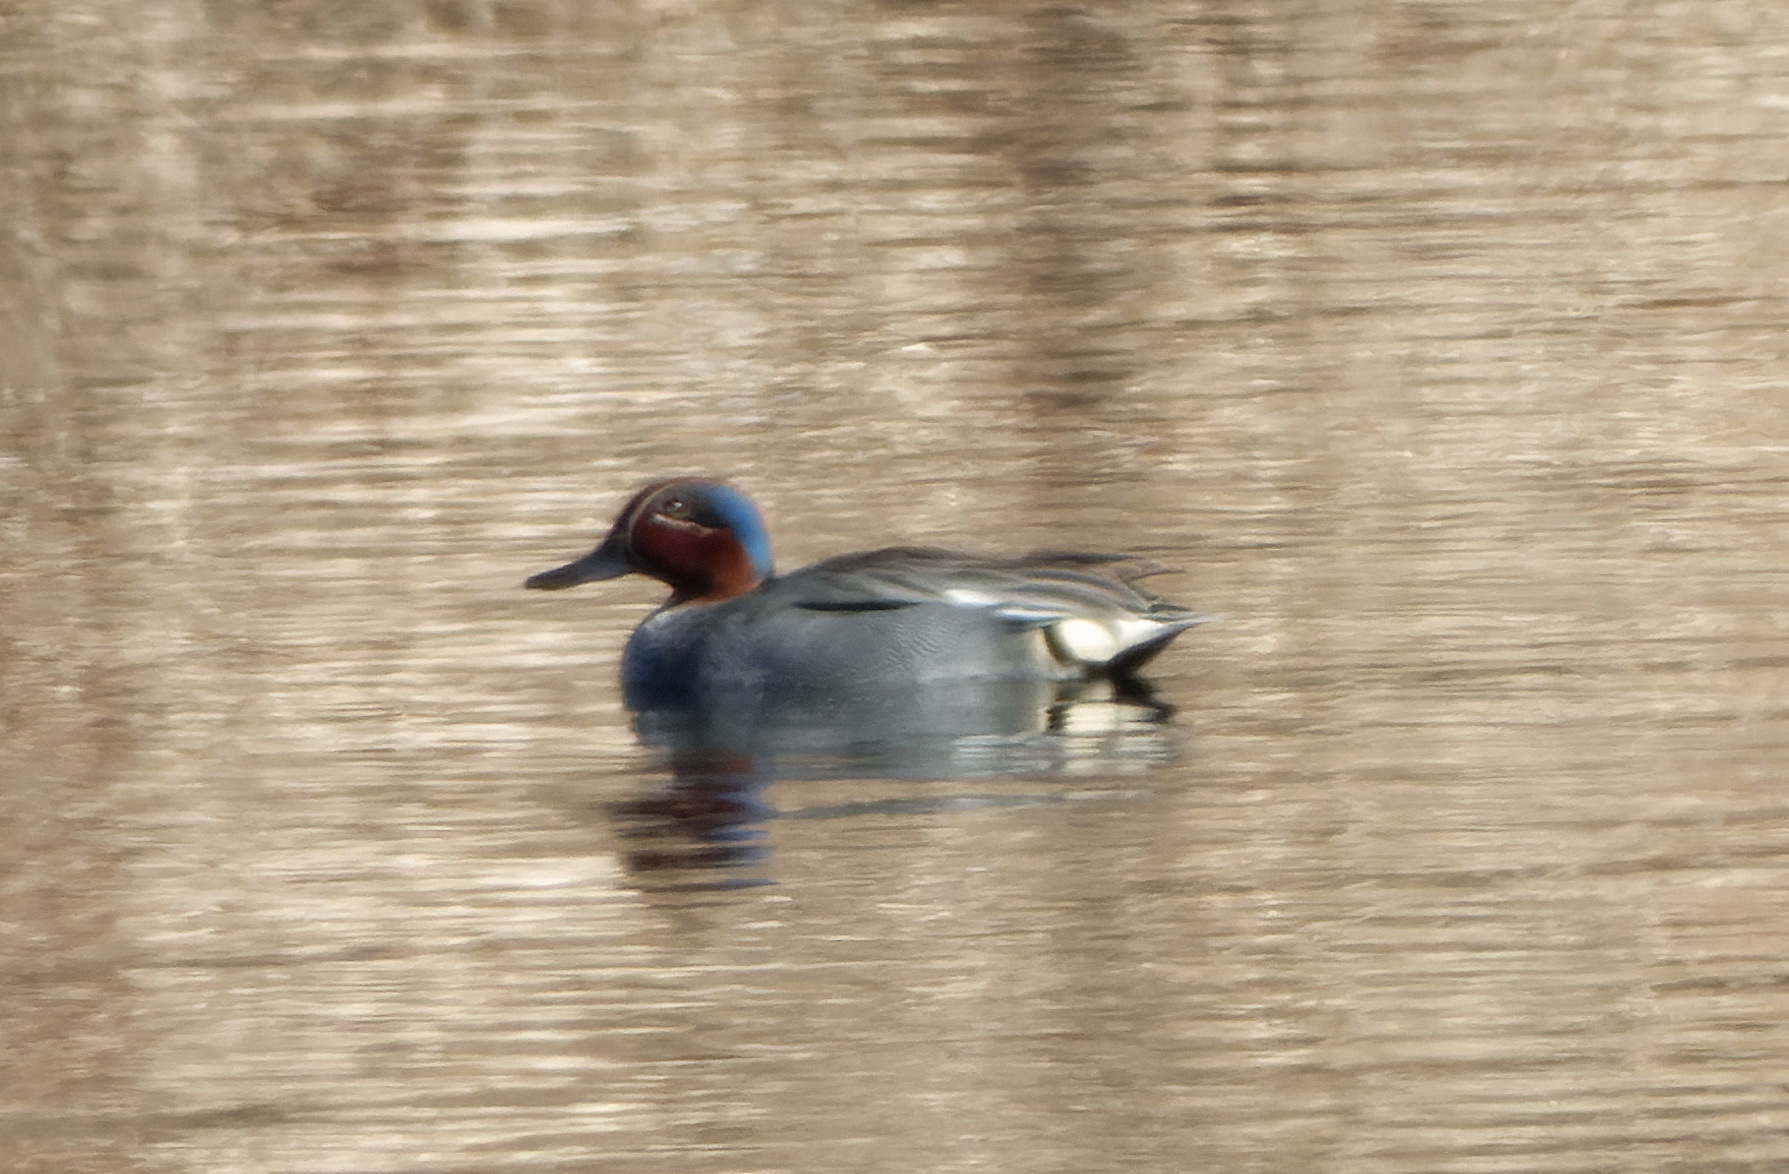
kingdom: Animalia
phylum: Chordata
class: Aves
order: Anseriformes
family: Anatidae
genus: Anas
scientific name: Anas crecca
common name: Eurasian teal
